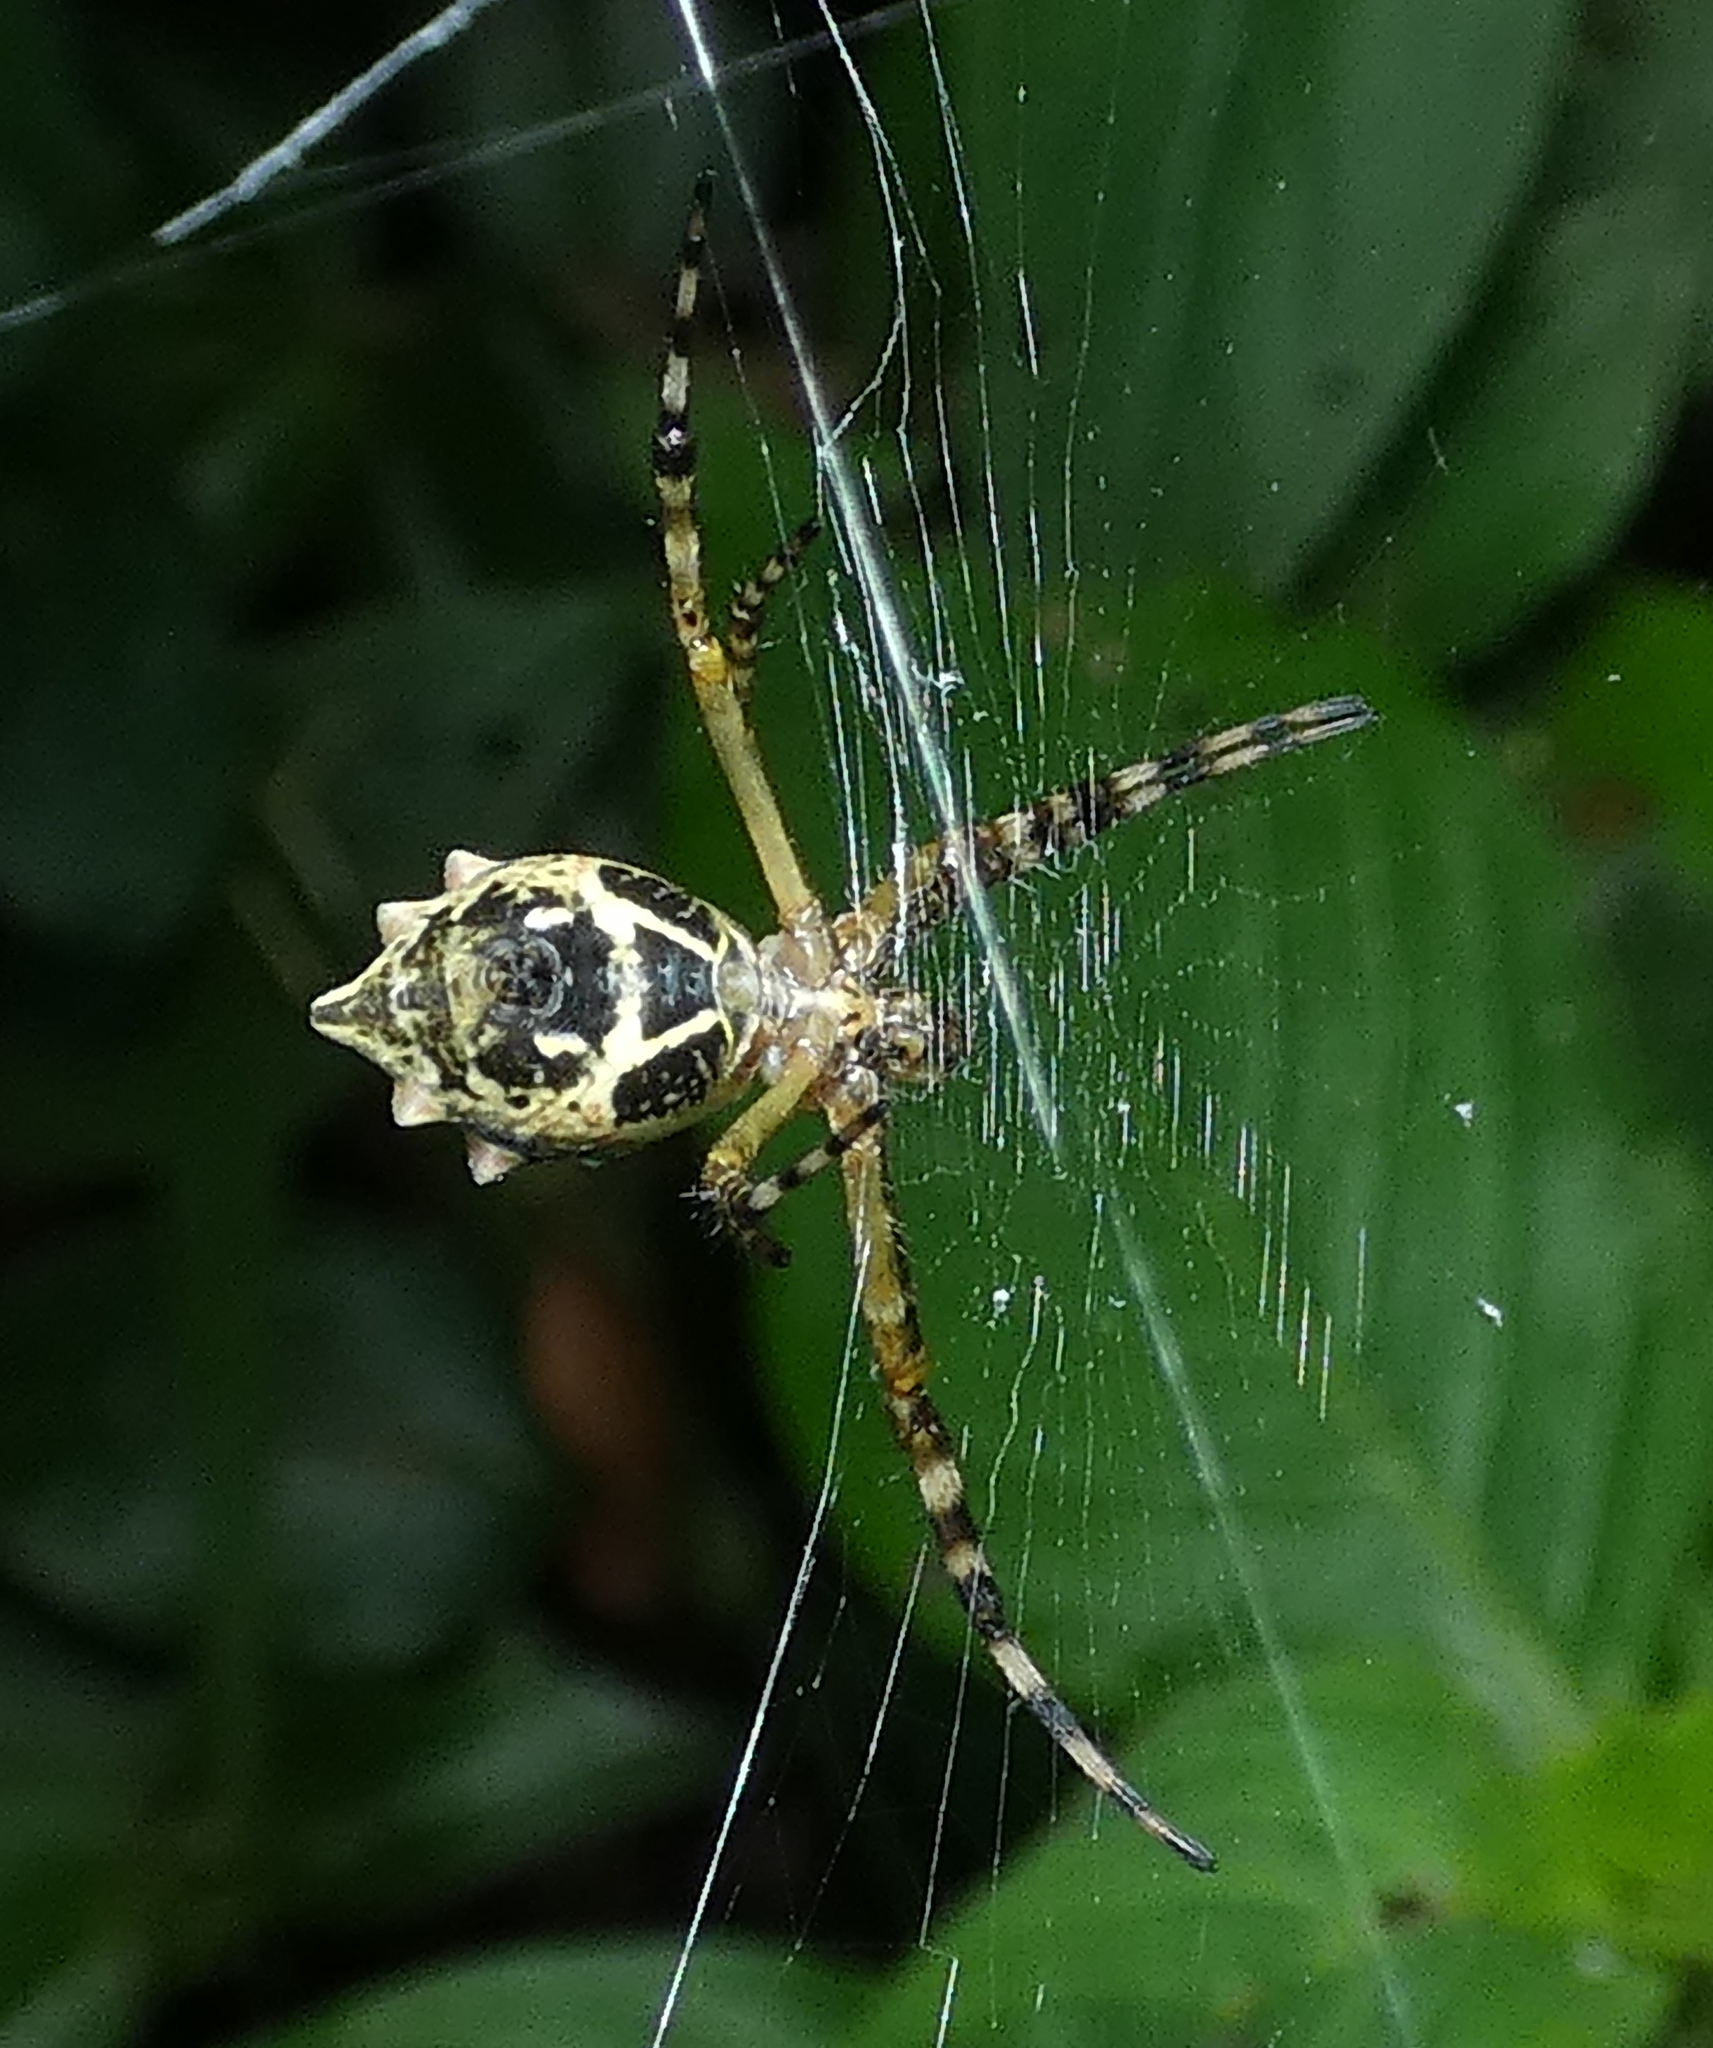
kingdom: Animalia
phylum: Arthropoda
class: Arachnida
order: Araneae
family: Araneidae
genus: Argiope
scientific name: Argiope argentata
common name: Orb weavers
